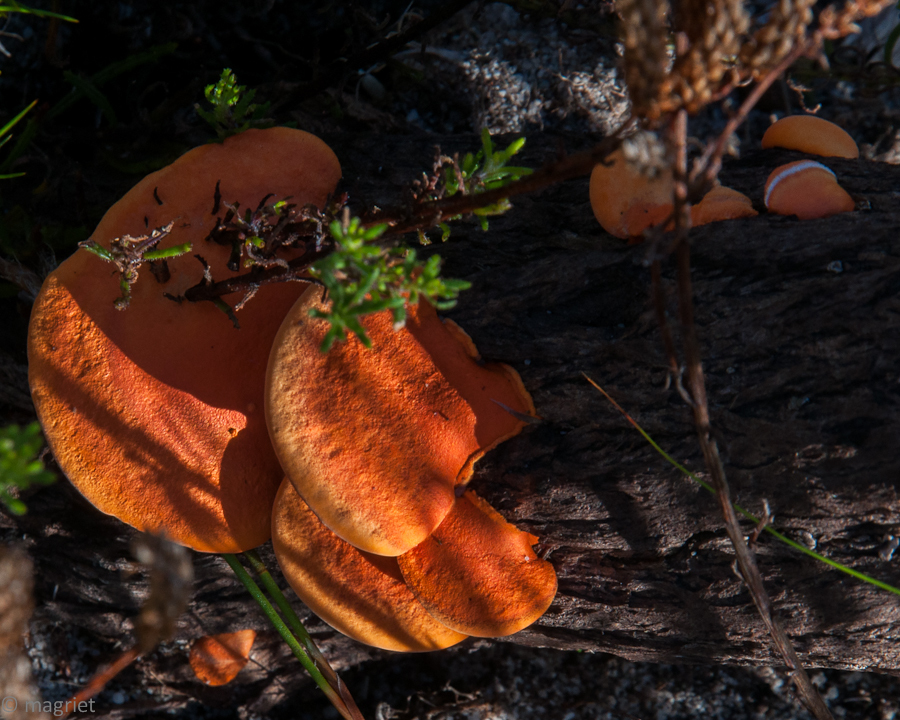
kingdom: Fungi
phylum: Basidiomycota
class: Agaricomycetes
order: Polyporales
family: Polyporaceae
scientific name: Polyporaceae
